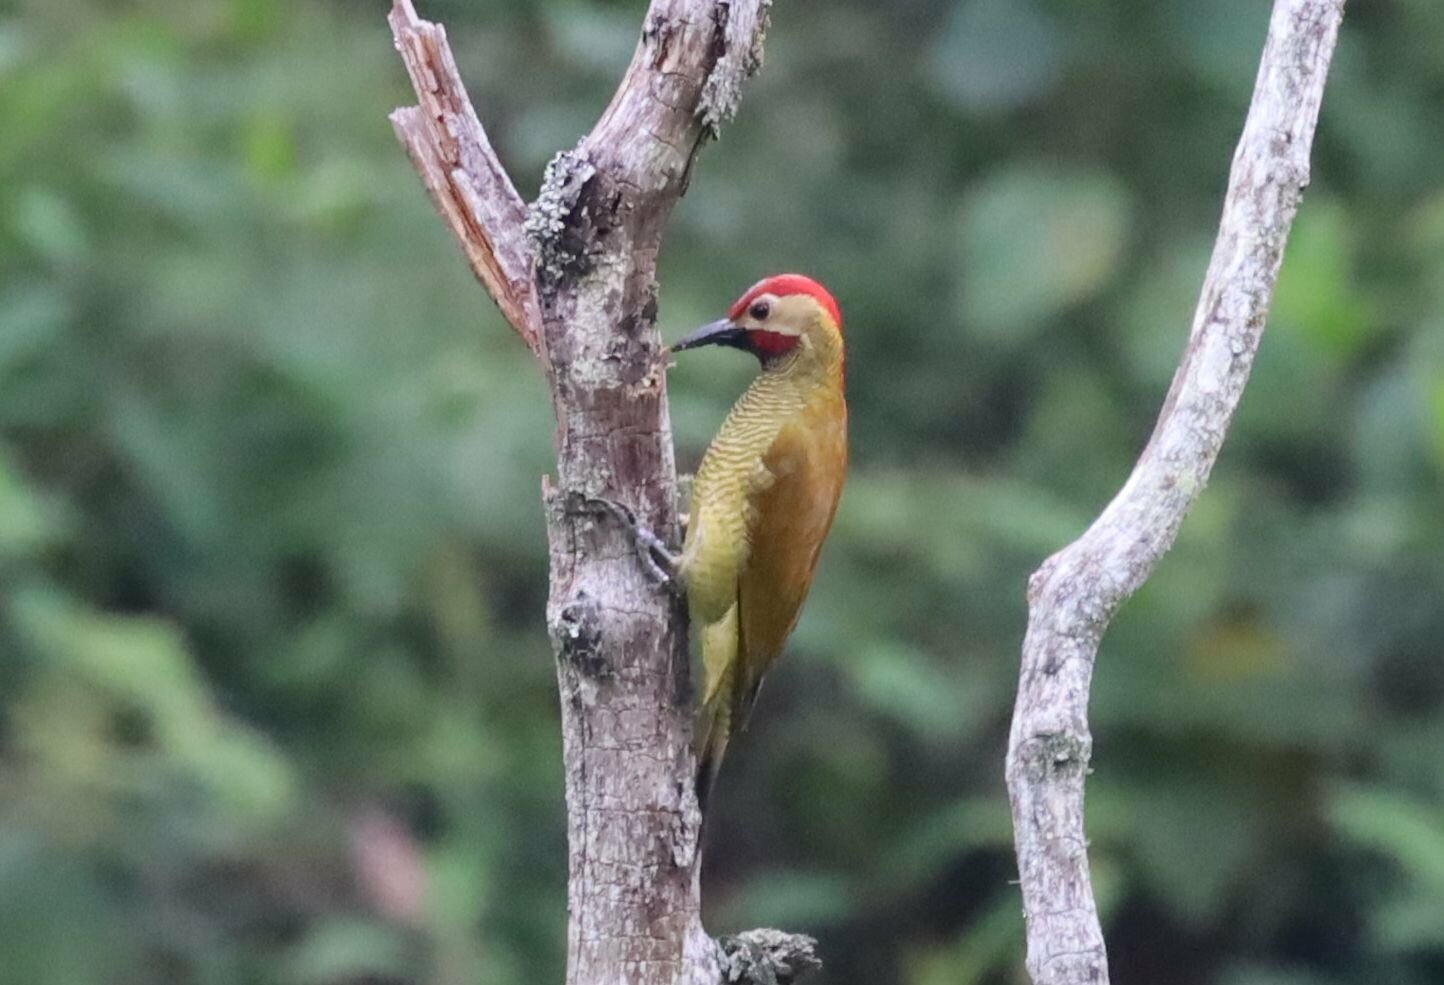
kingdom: Animalia
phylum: Chordata
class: Aves
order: Piciformes
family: Picidae
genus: Colaptes
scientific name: Colaptes rubiginosus
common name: Golden-olive woodpecker
